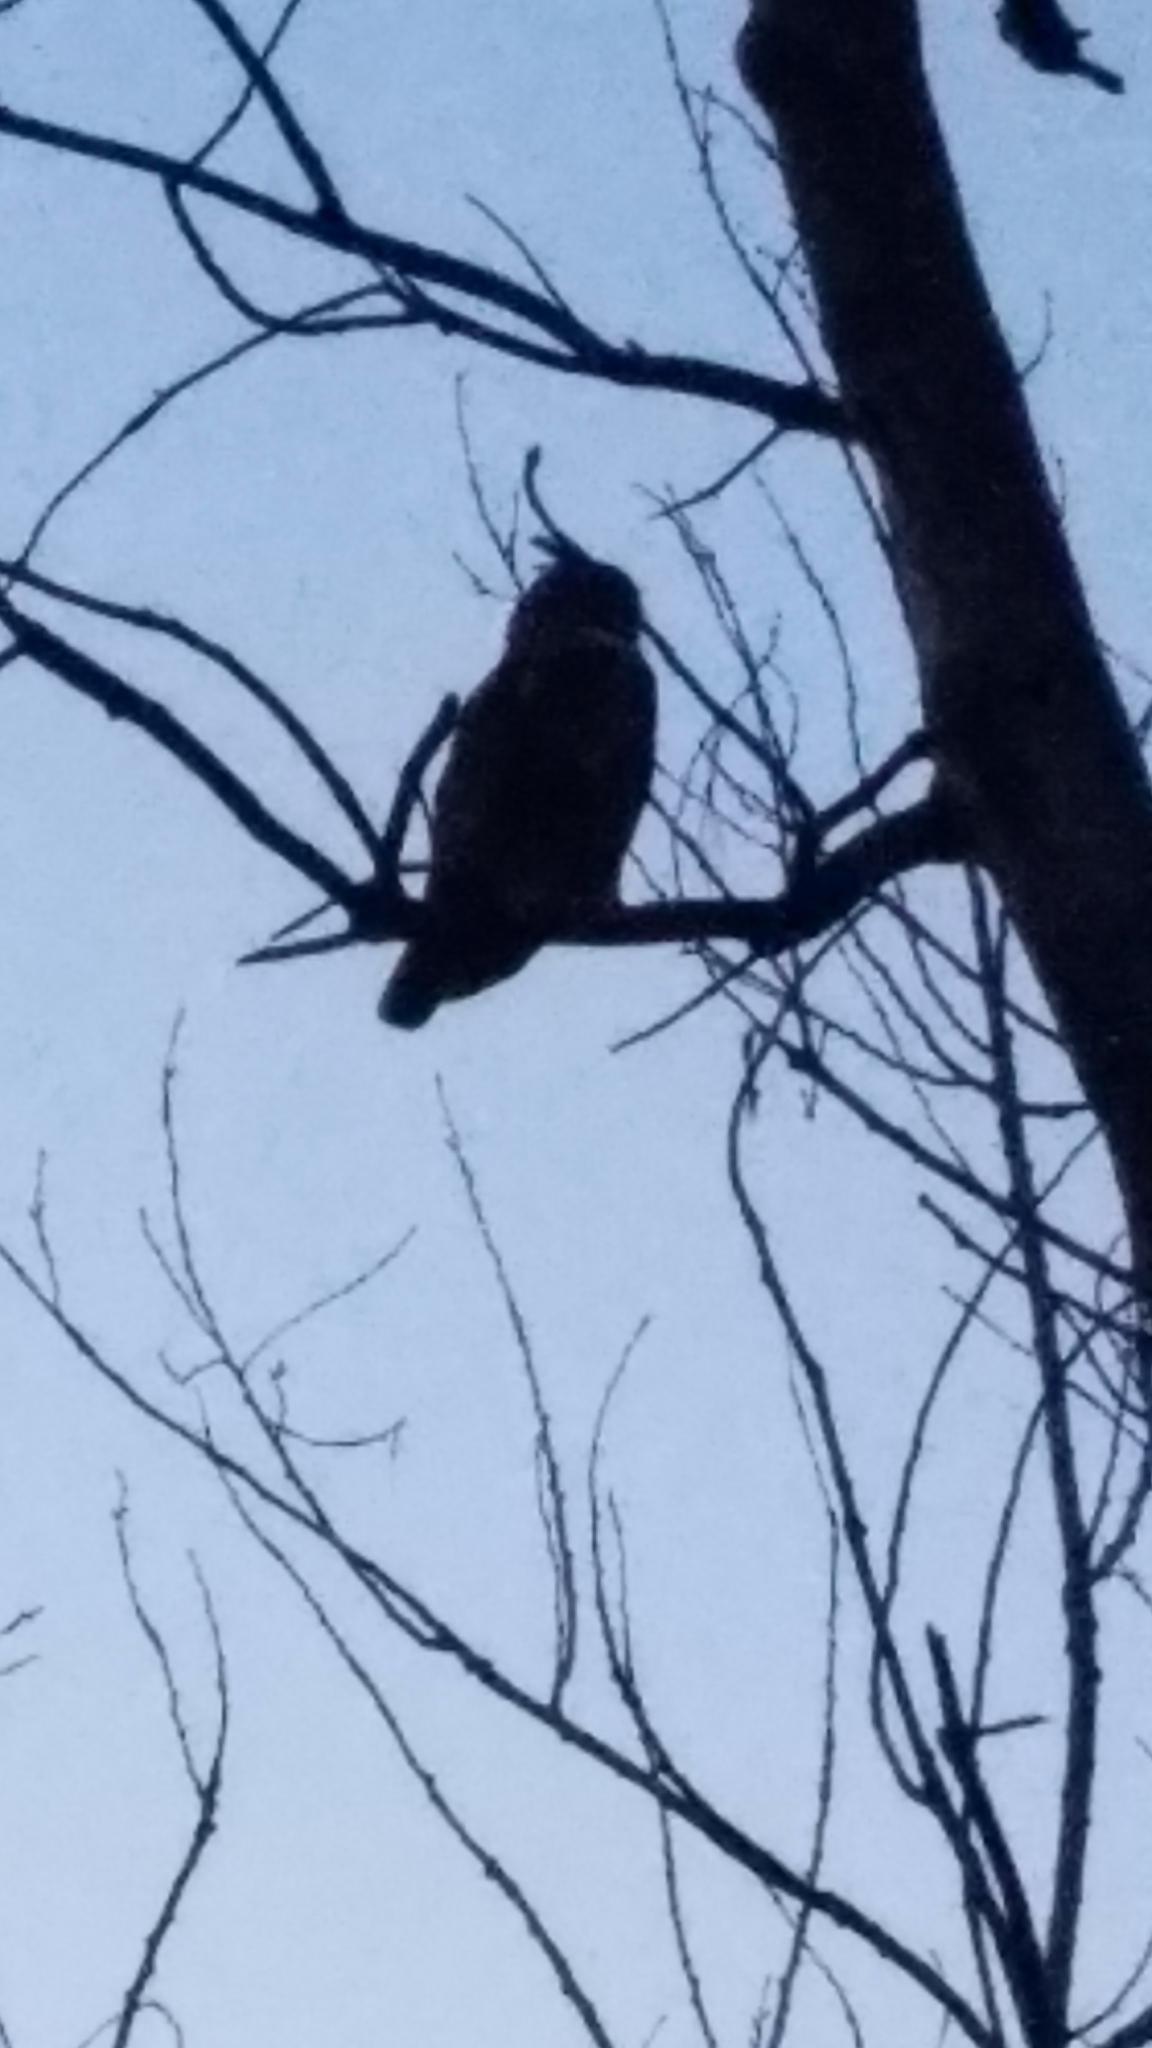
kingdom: Animalia
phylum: Chordata
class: Aves
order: Strigiformes
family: Strigidae
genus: Bubo
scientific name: Bubo virginianus
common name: Great horned owl
